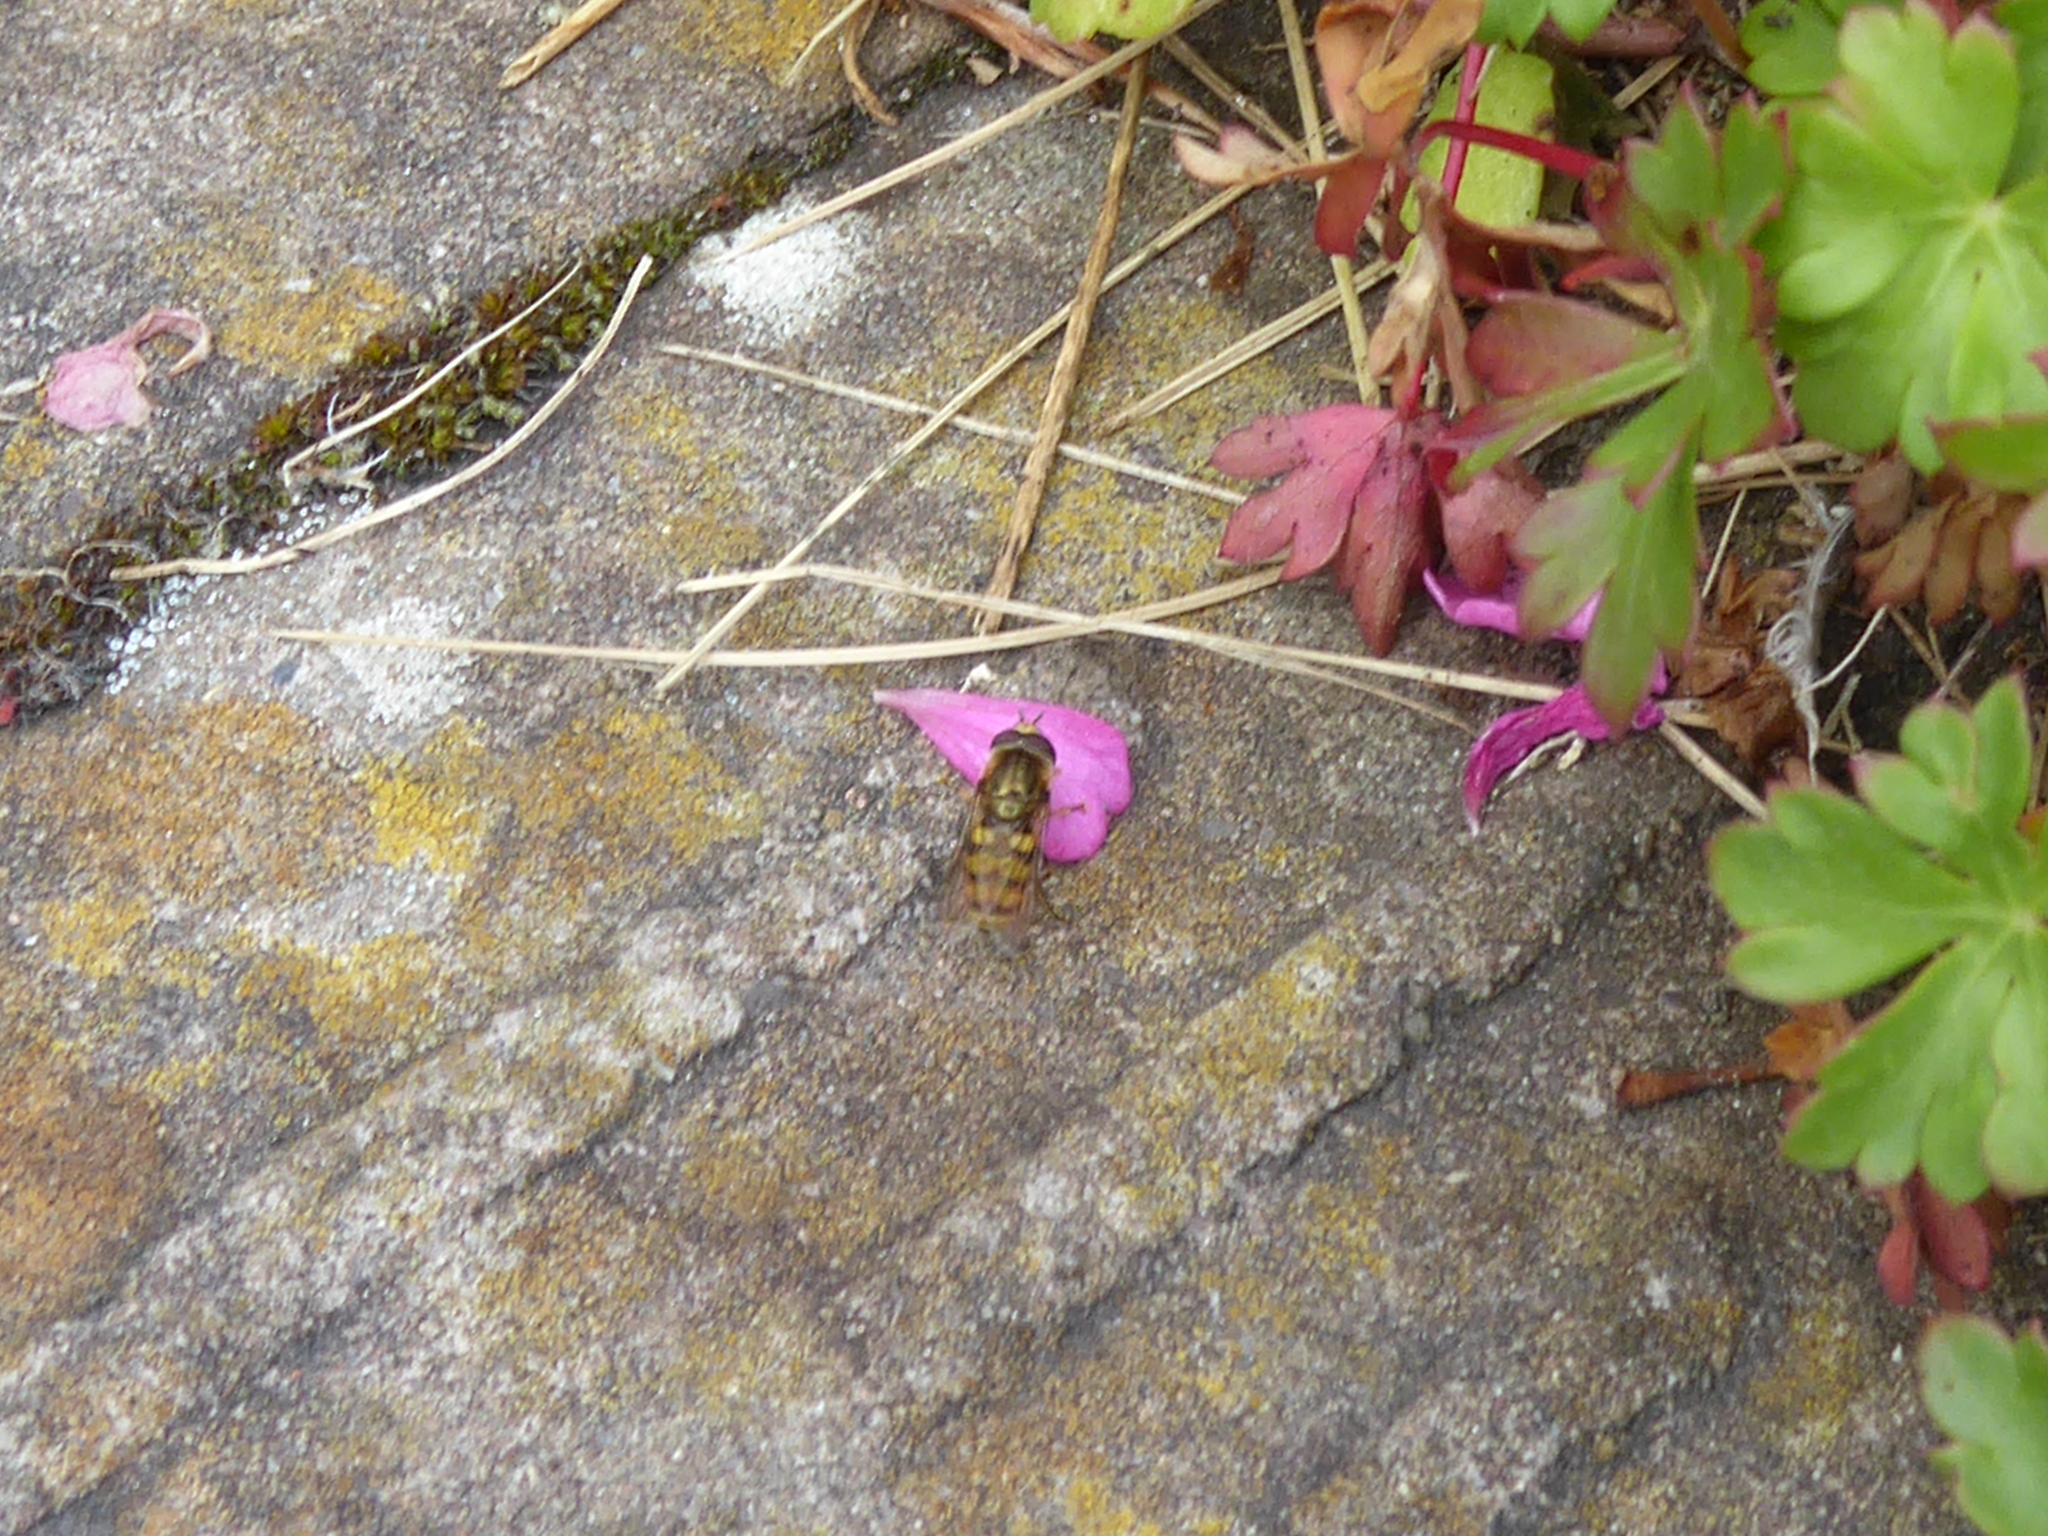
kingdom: Animalia
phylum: Arthropoda
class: Insecta
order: Diptera
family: Syrphidae
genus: Eupeodes
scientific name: Eupeodes
